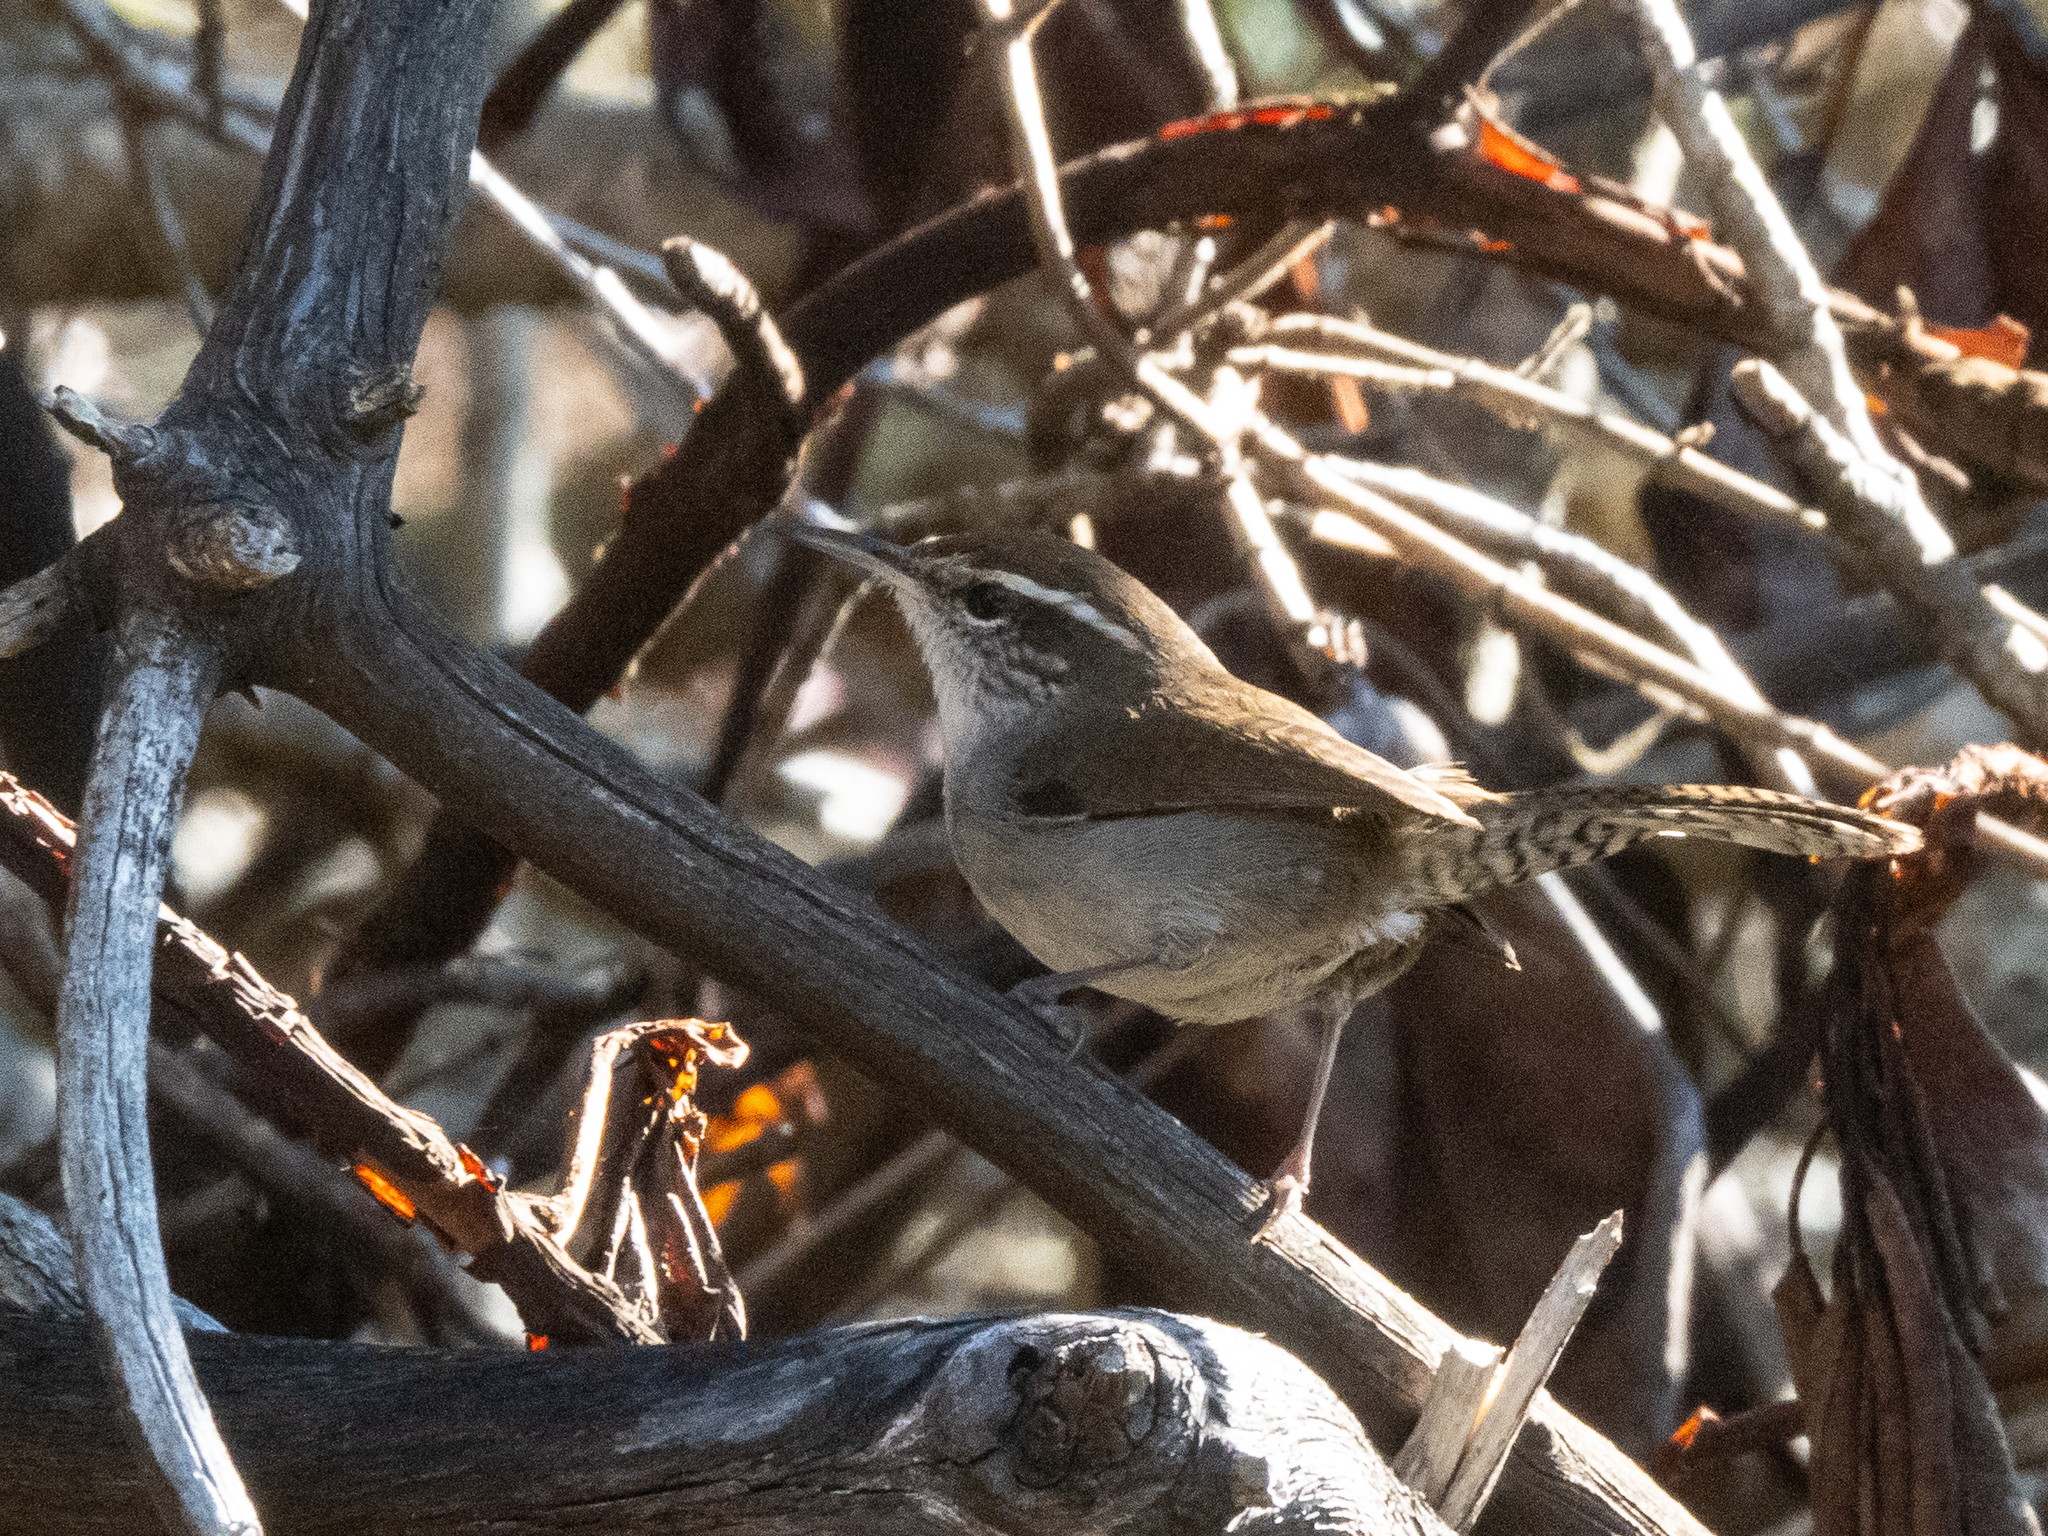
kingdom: Animalia
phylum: Chordata
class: Aves
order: Passeriformes
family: Troglodytidae
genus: Thryomanes
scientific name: Thryomanes bewickii
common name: Bewick's wren
